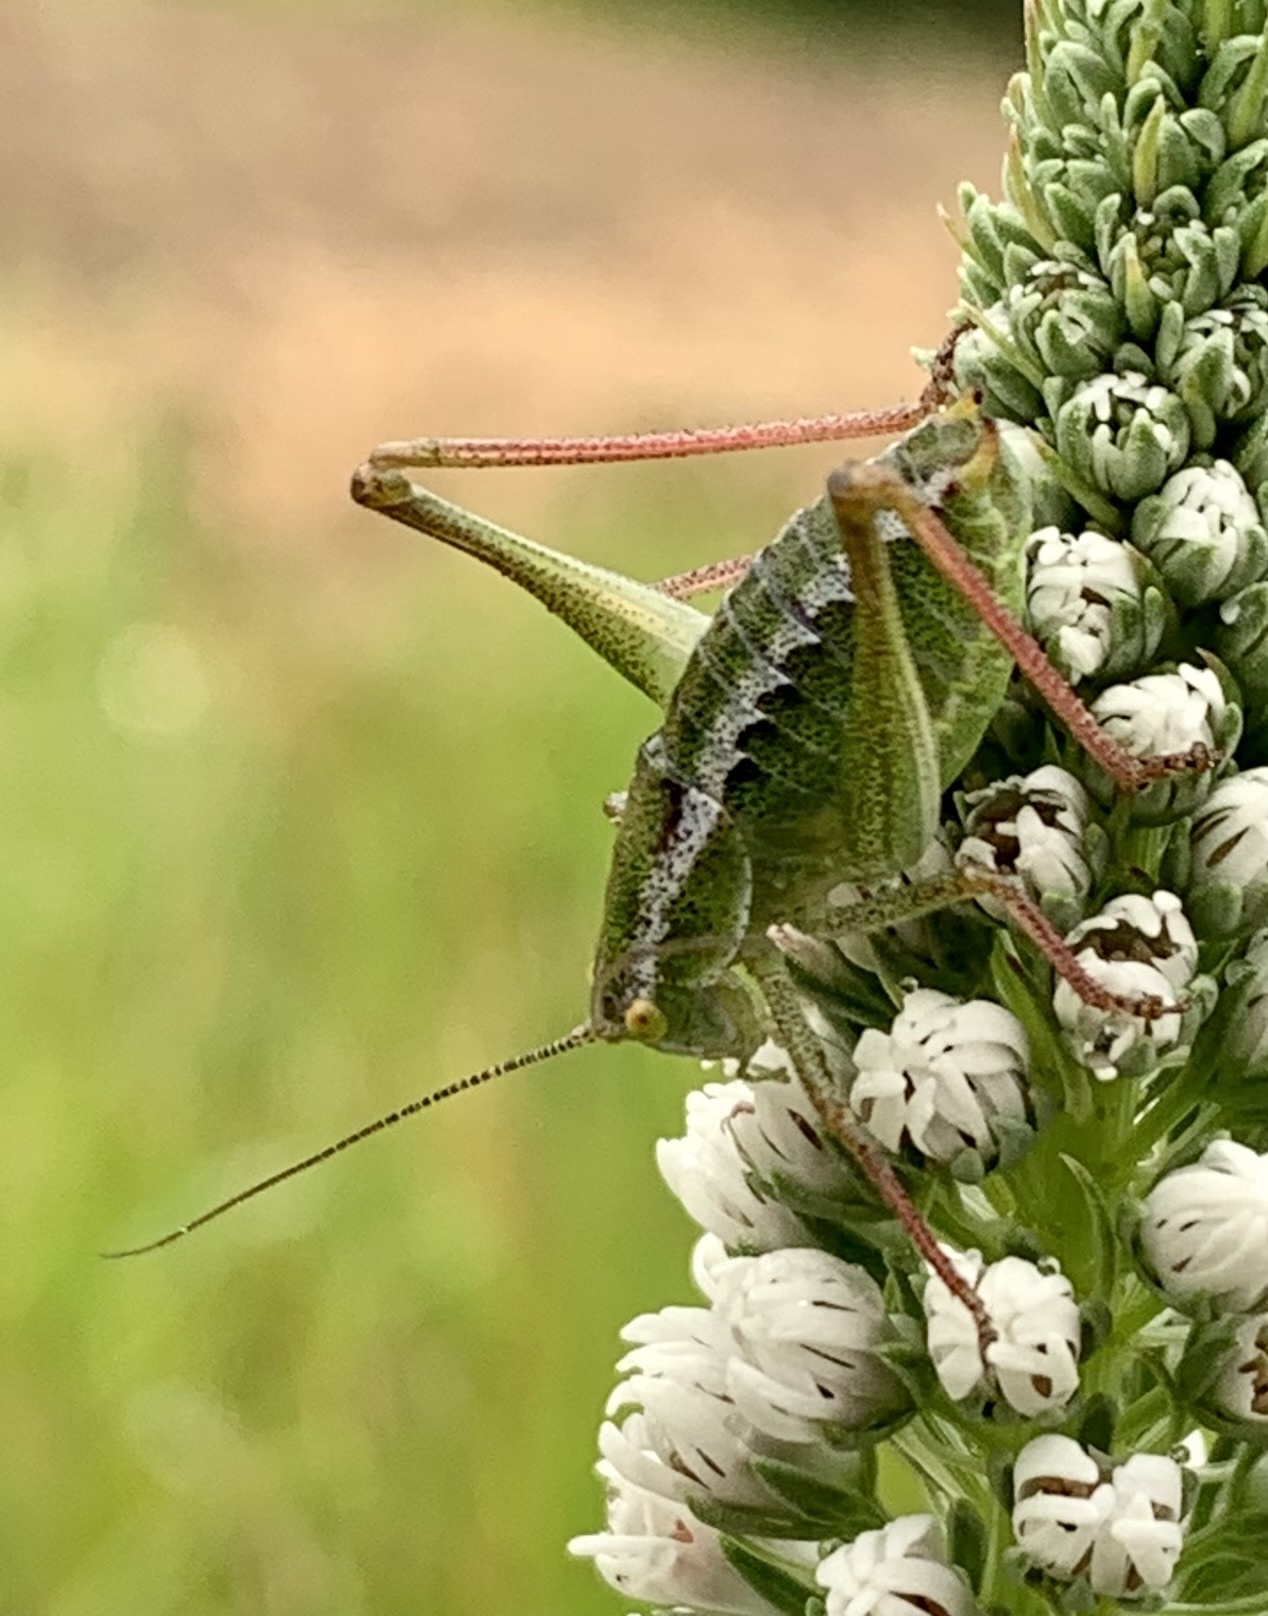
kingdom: Animalia
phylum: Arthropoda
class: Insecta
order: Orthoptera
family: Tettigoniidae
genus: Poecilimon
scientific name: Poecilimon propinquus
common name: Similar bright bush-cricket
